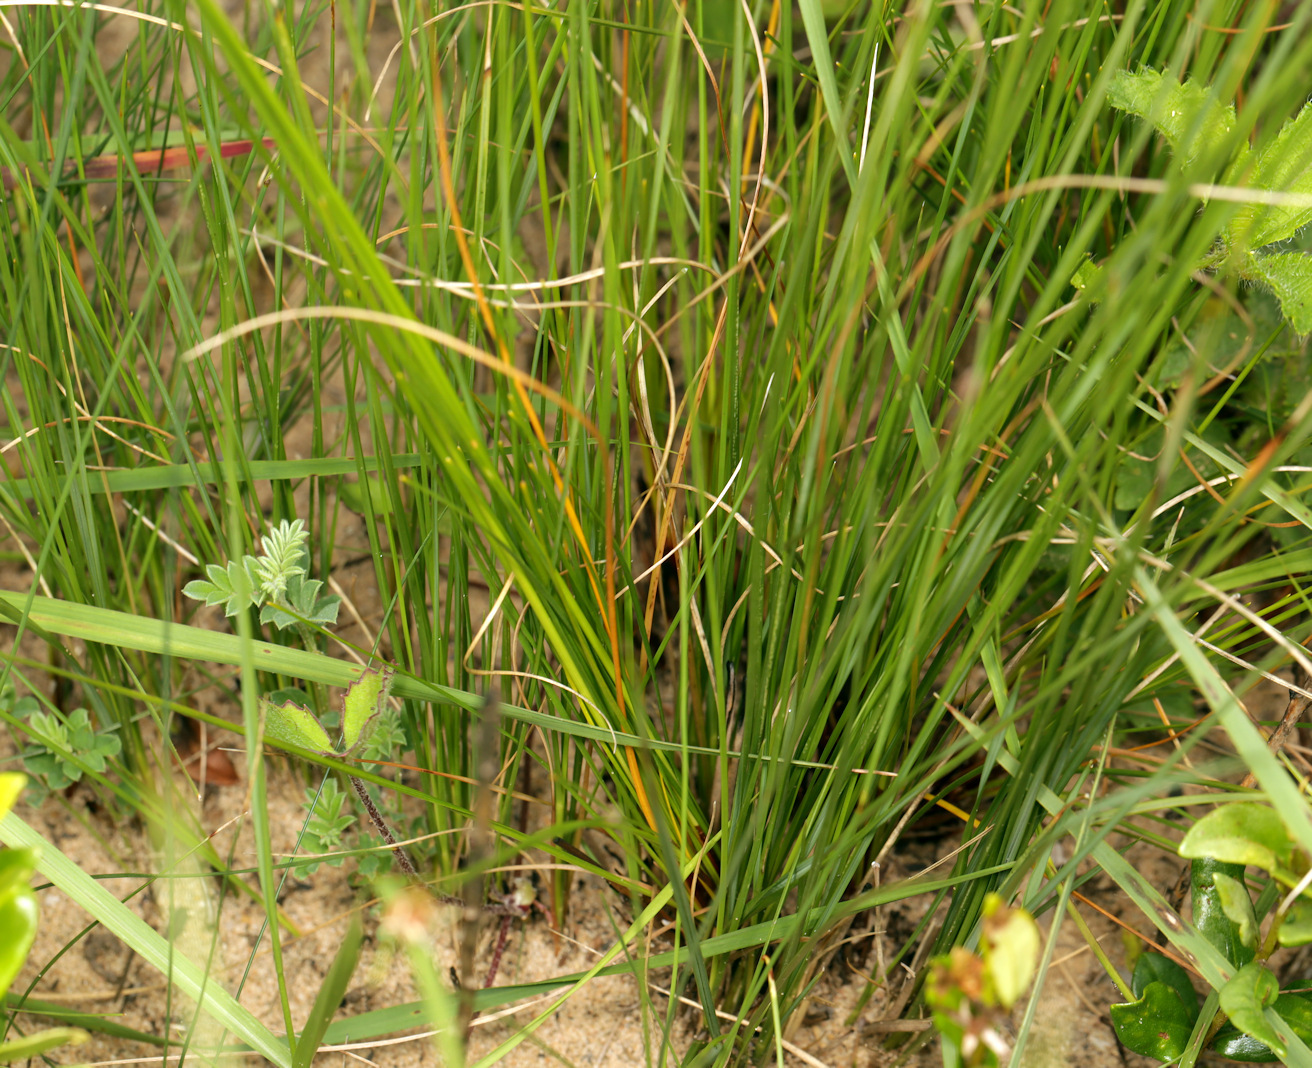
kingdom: Plantae
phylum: Tracheophyta
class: Liliopsida
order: Poales
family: Cyperaceae
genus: Ficinia
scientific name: Ficinia laciniata
